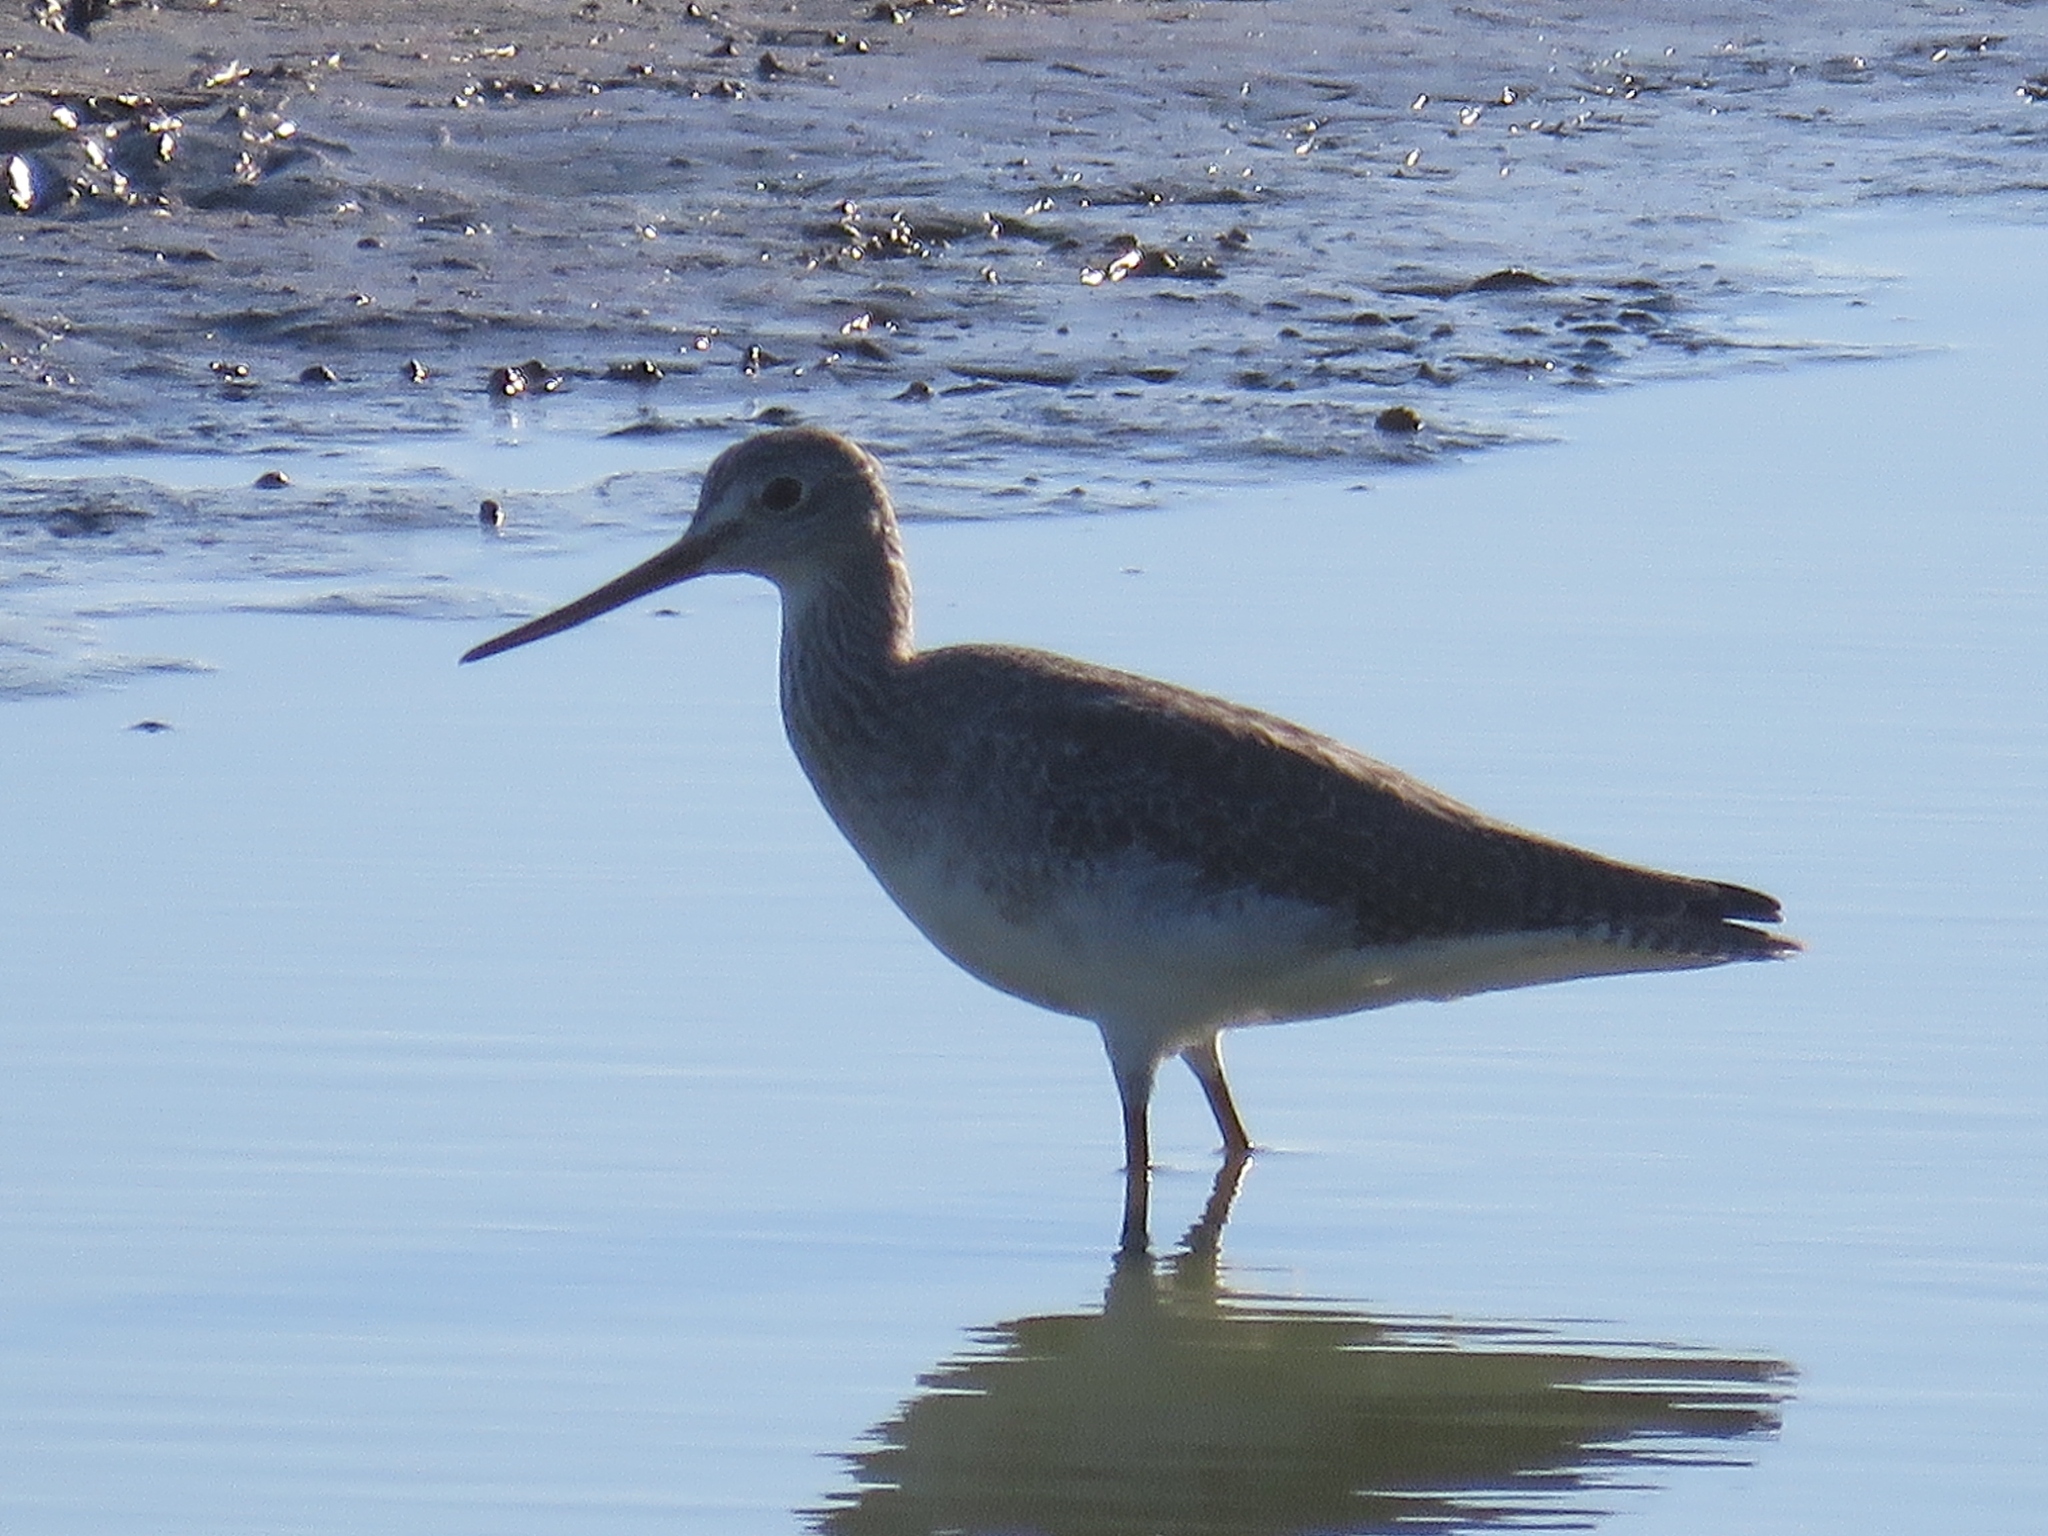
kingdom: Animalia
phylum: Chordata
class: Aves
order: Charadriiformes
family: Scolopacidae
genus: Tringa
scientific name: Tringa melanoleuca
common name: Greater yellowlegs
